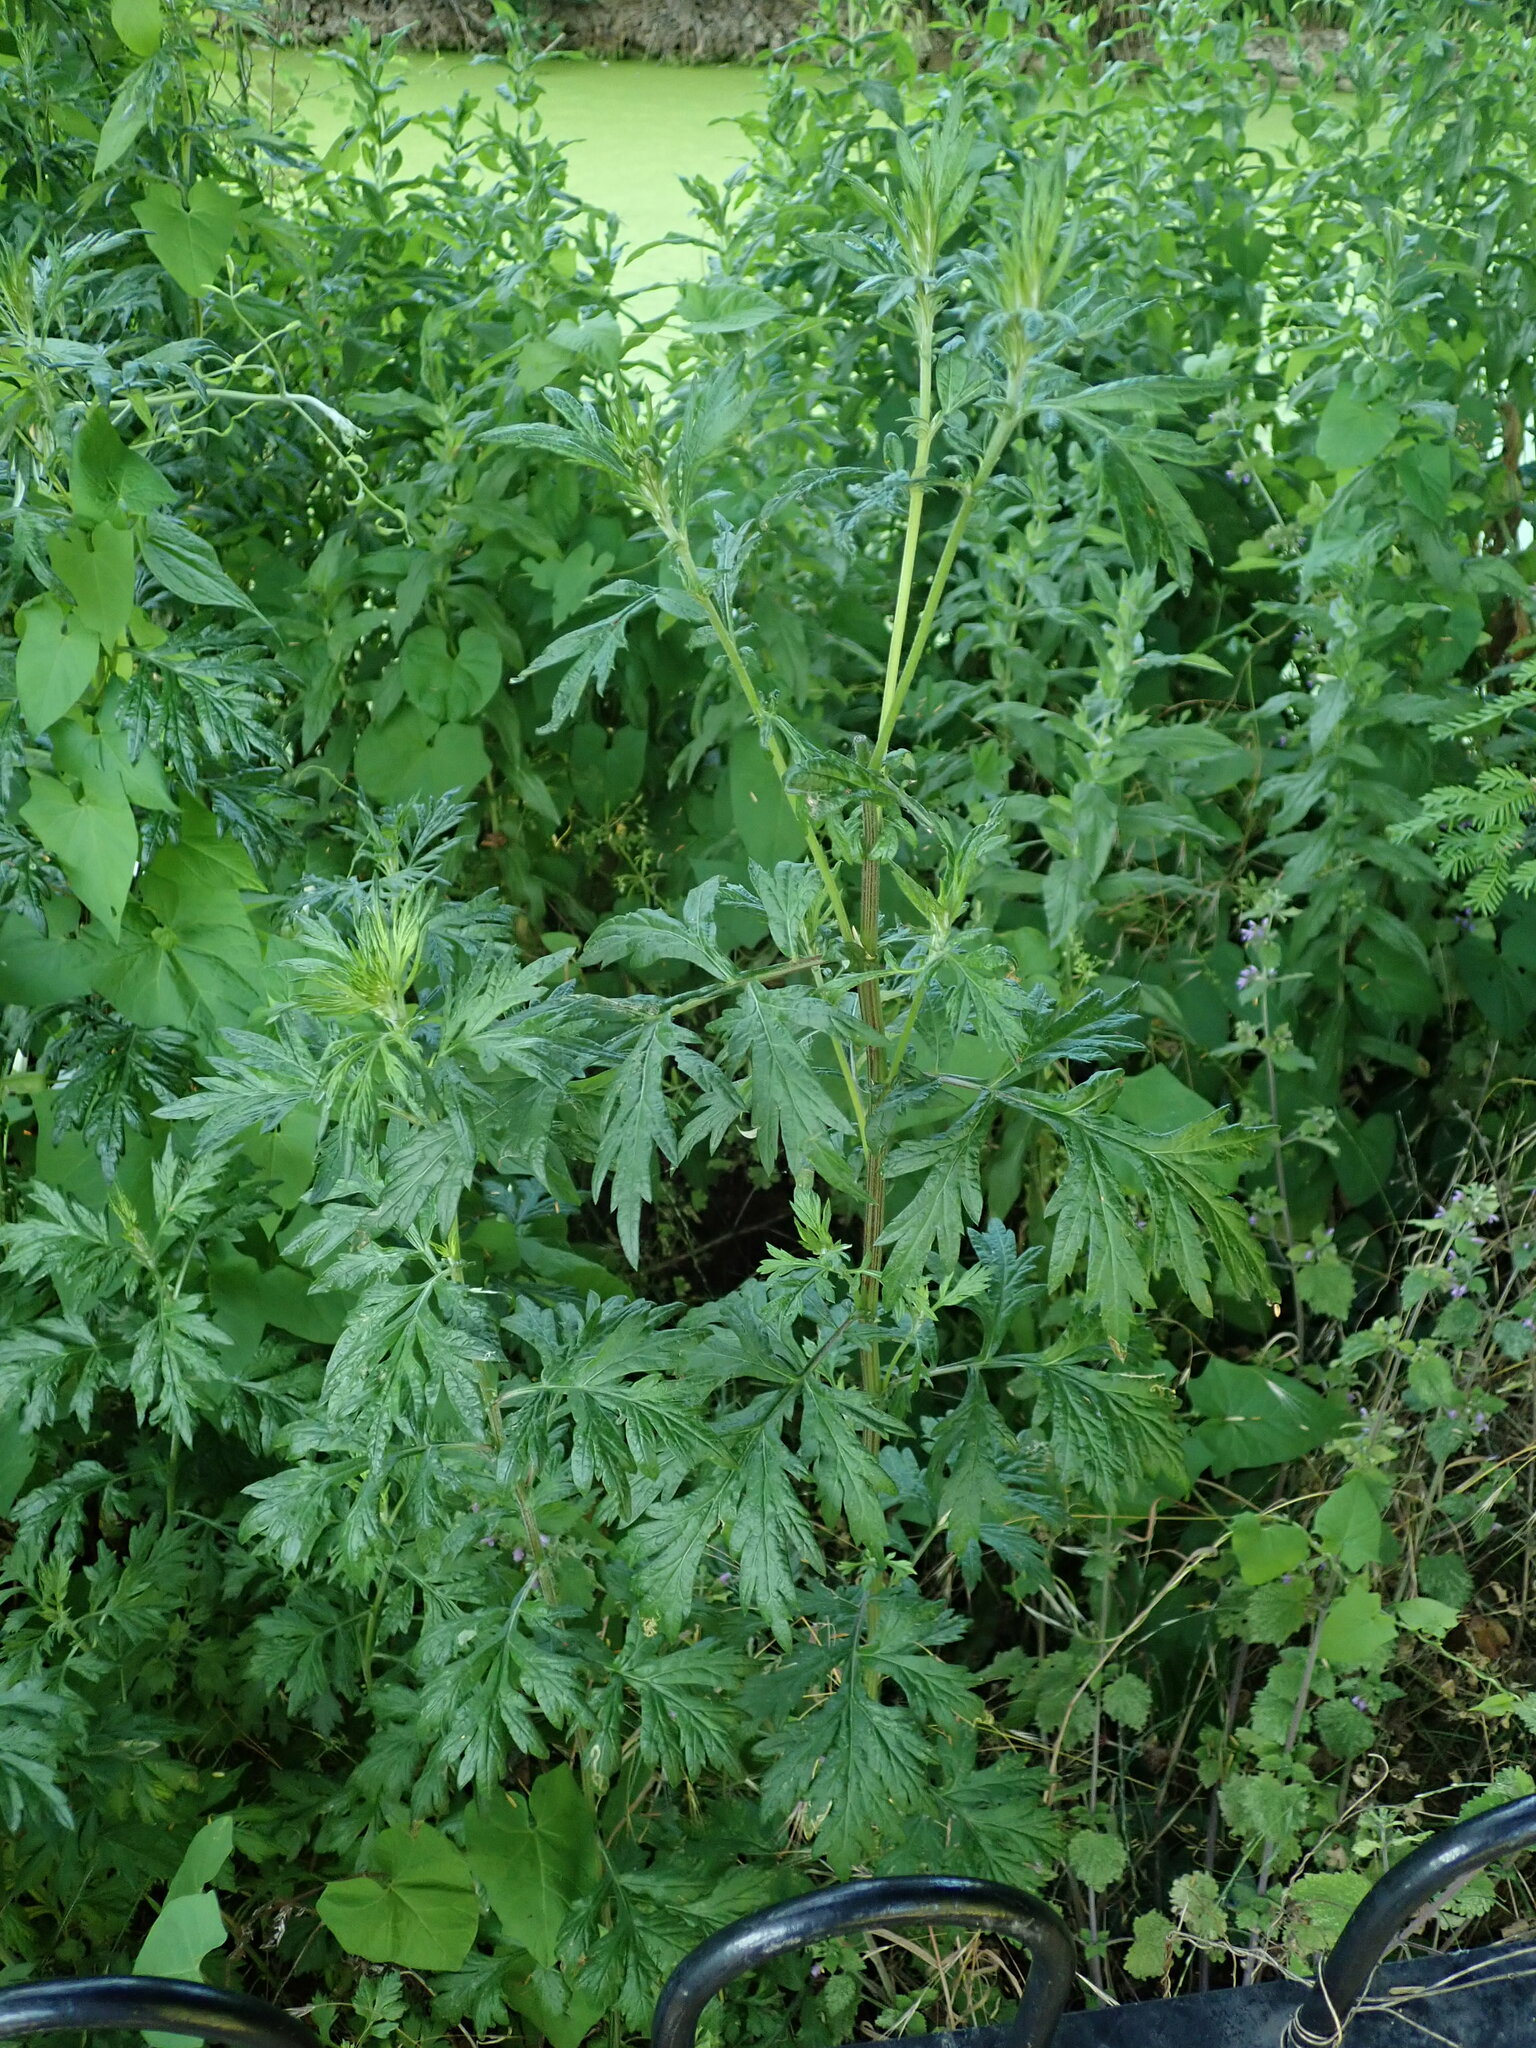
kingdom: Plantae
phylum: Tracheophyta
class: Magnoliopsida
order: Asterales
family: Asteraceae
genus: Artemisia
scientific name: Artemisia vulgaris
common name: Mugwort
